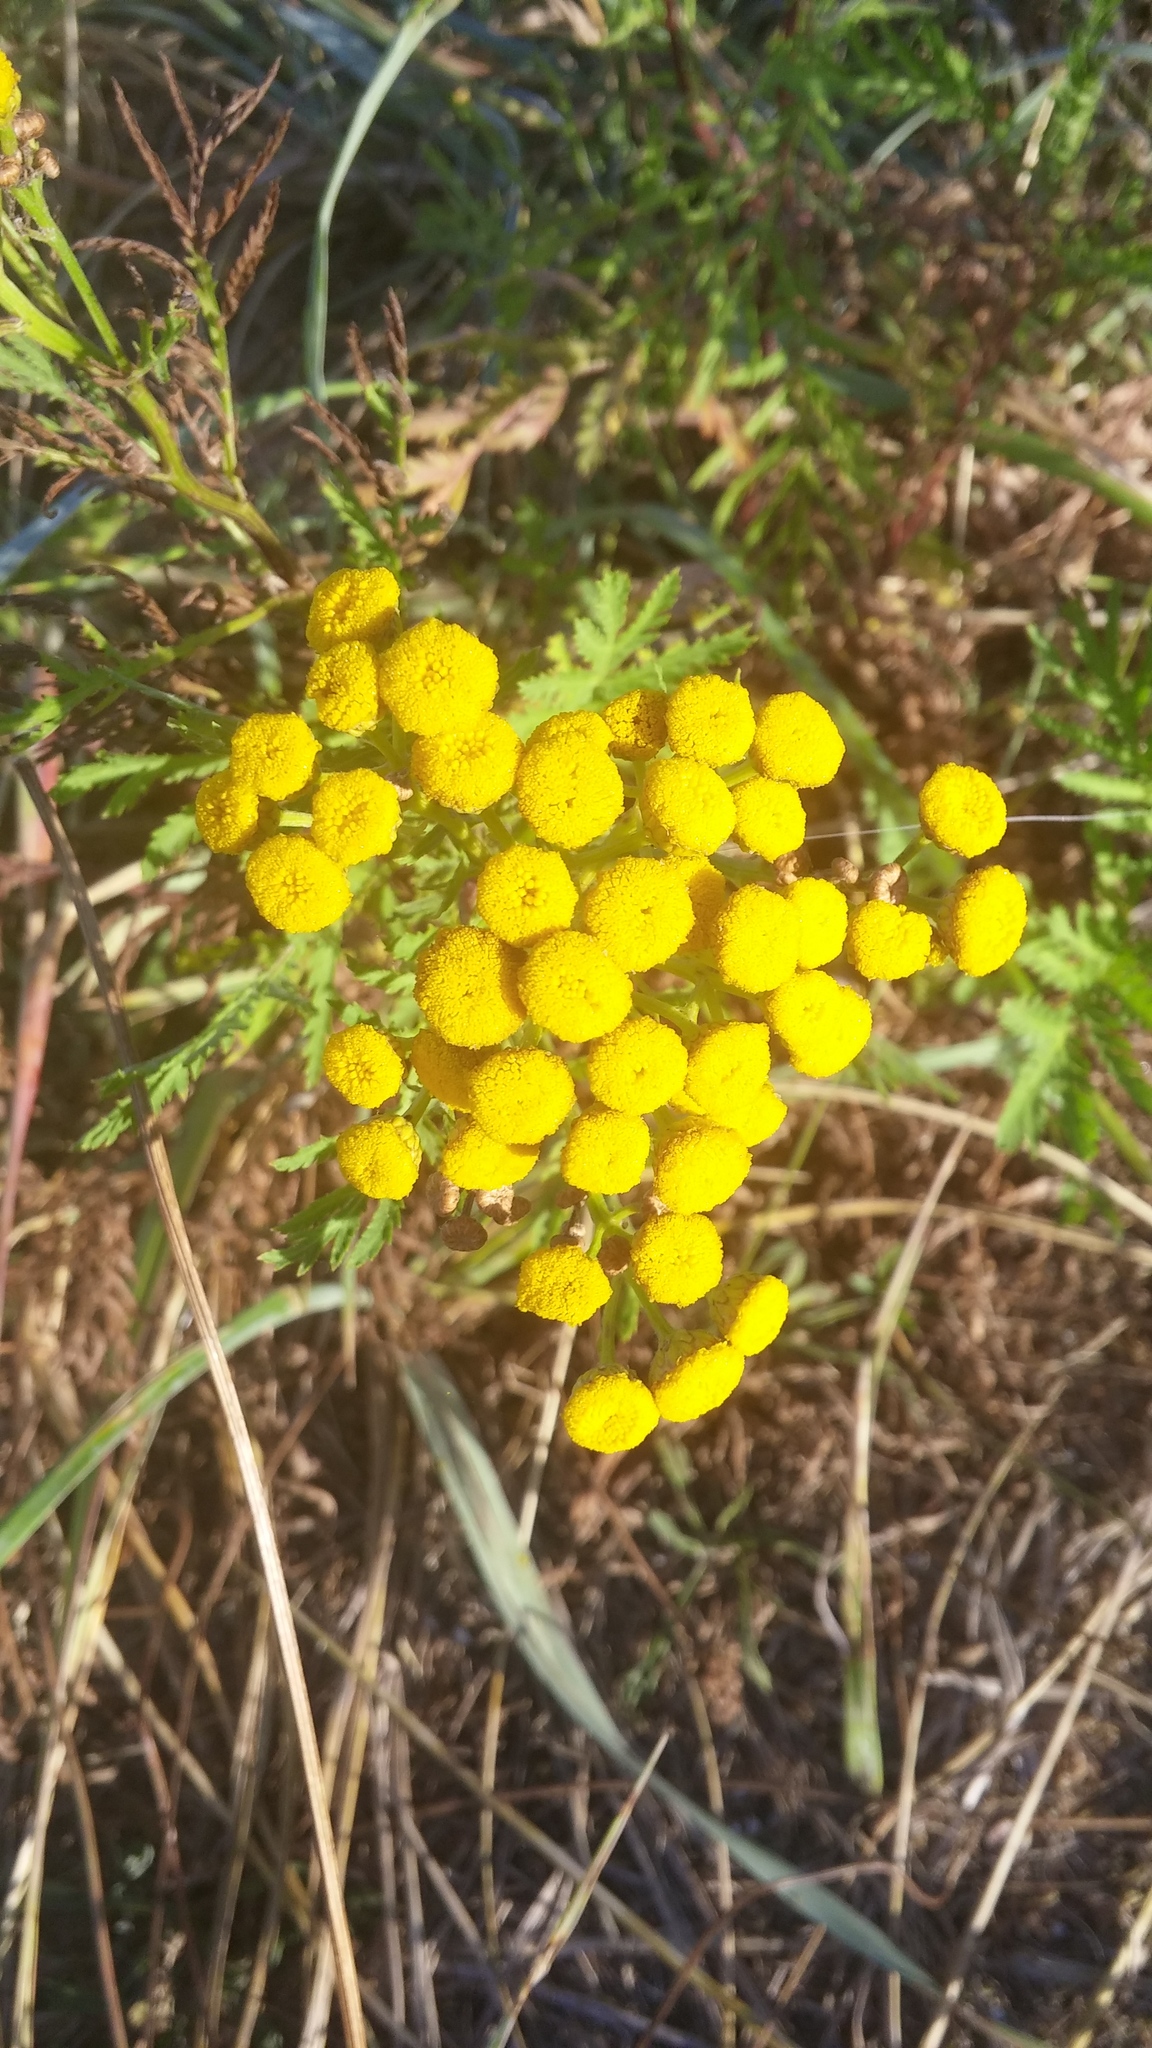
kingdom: Plantae
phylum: Tracheophyta
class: Magnoliopsida
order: Asterales
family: Asteraceae
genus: Tanacetum
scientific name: Tanacetum vulgare
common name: Common tansy
